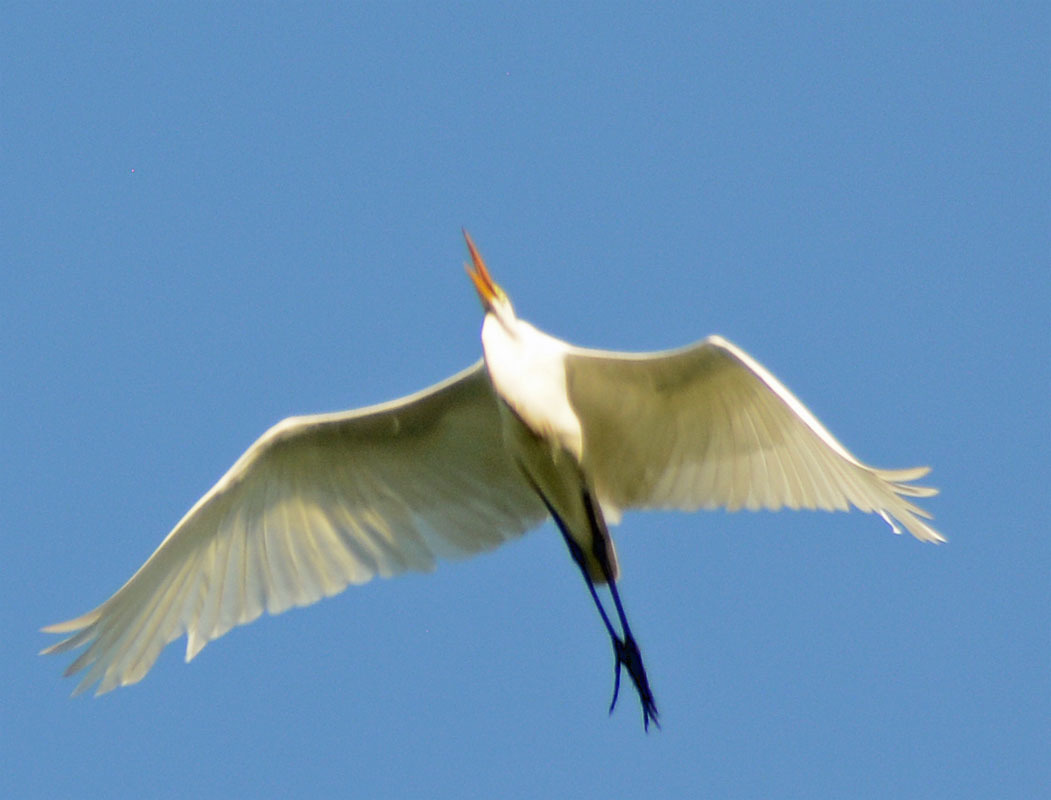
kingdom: Animalia
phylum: Chordata
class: Aves
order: Pelecaniformes
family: Ardeidae
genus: Ardea
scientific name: Ardea alba
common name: Great egret
